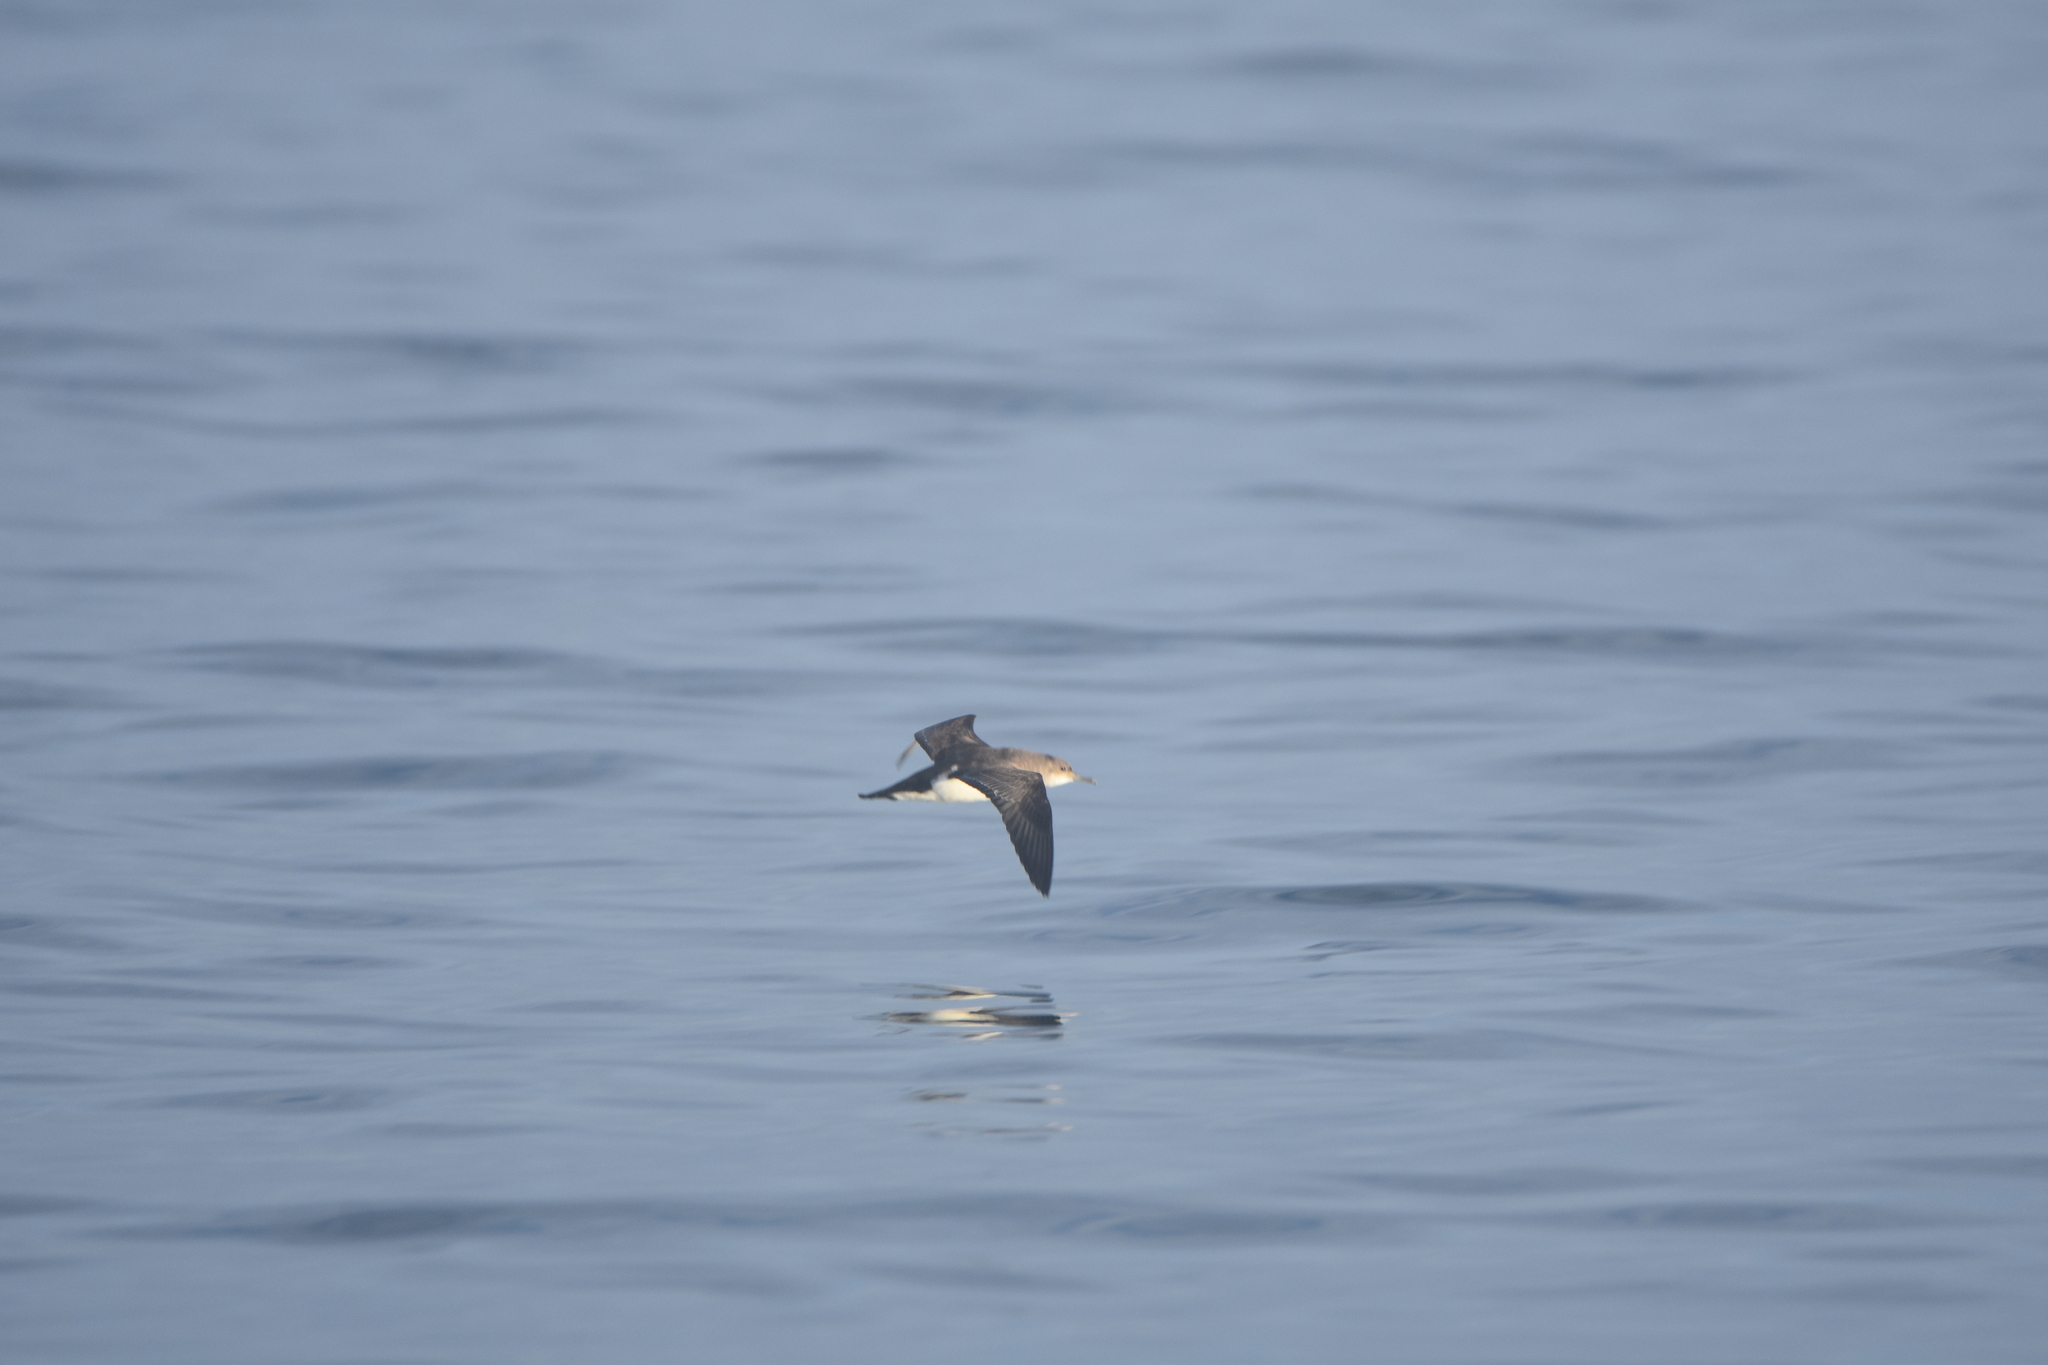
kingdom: Animalia
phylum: Chordata
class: Aves
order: Procellariiformes
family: Procellariidae
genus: Puffinus
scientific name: Puffinus gavia
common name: Fluttering shearwater
